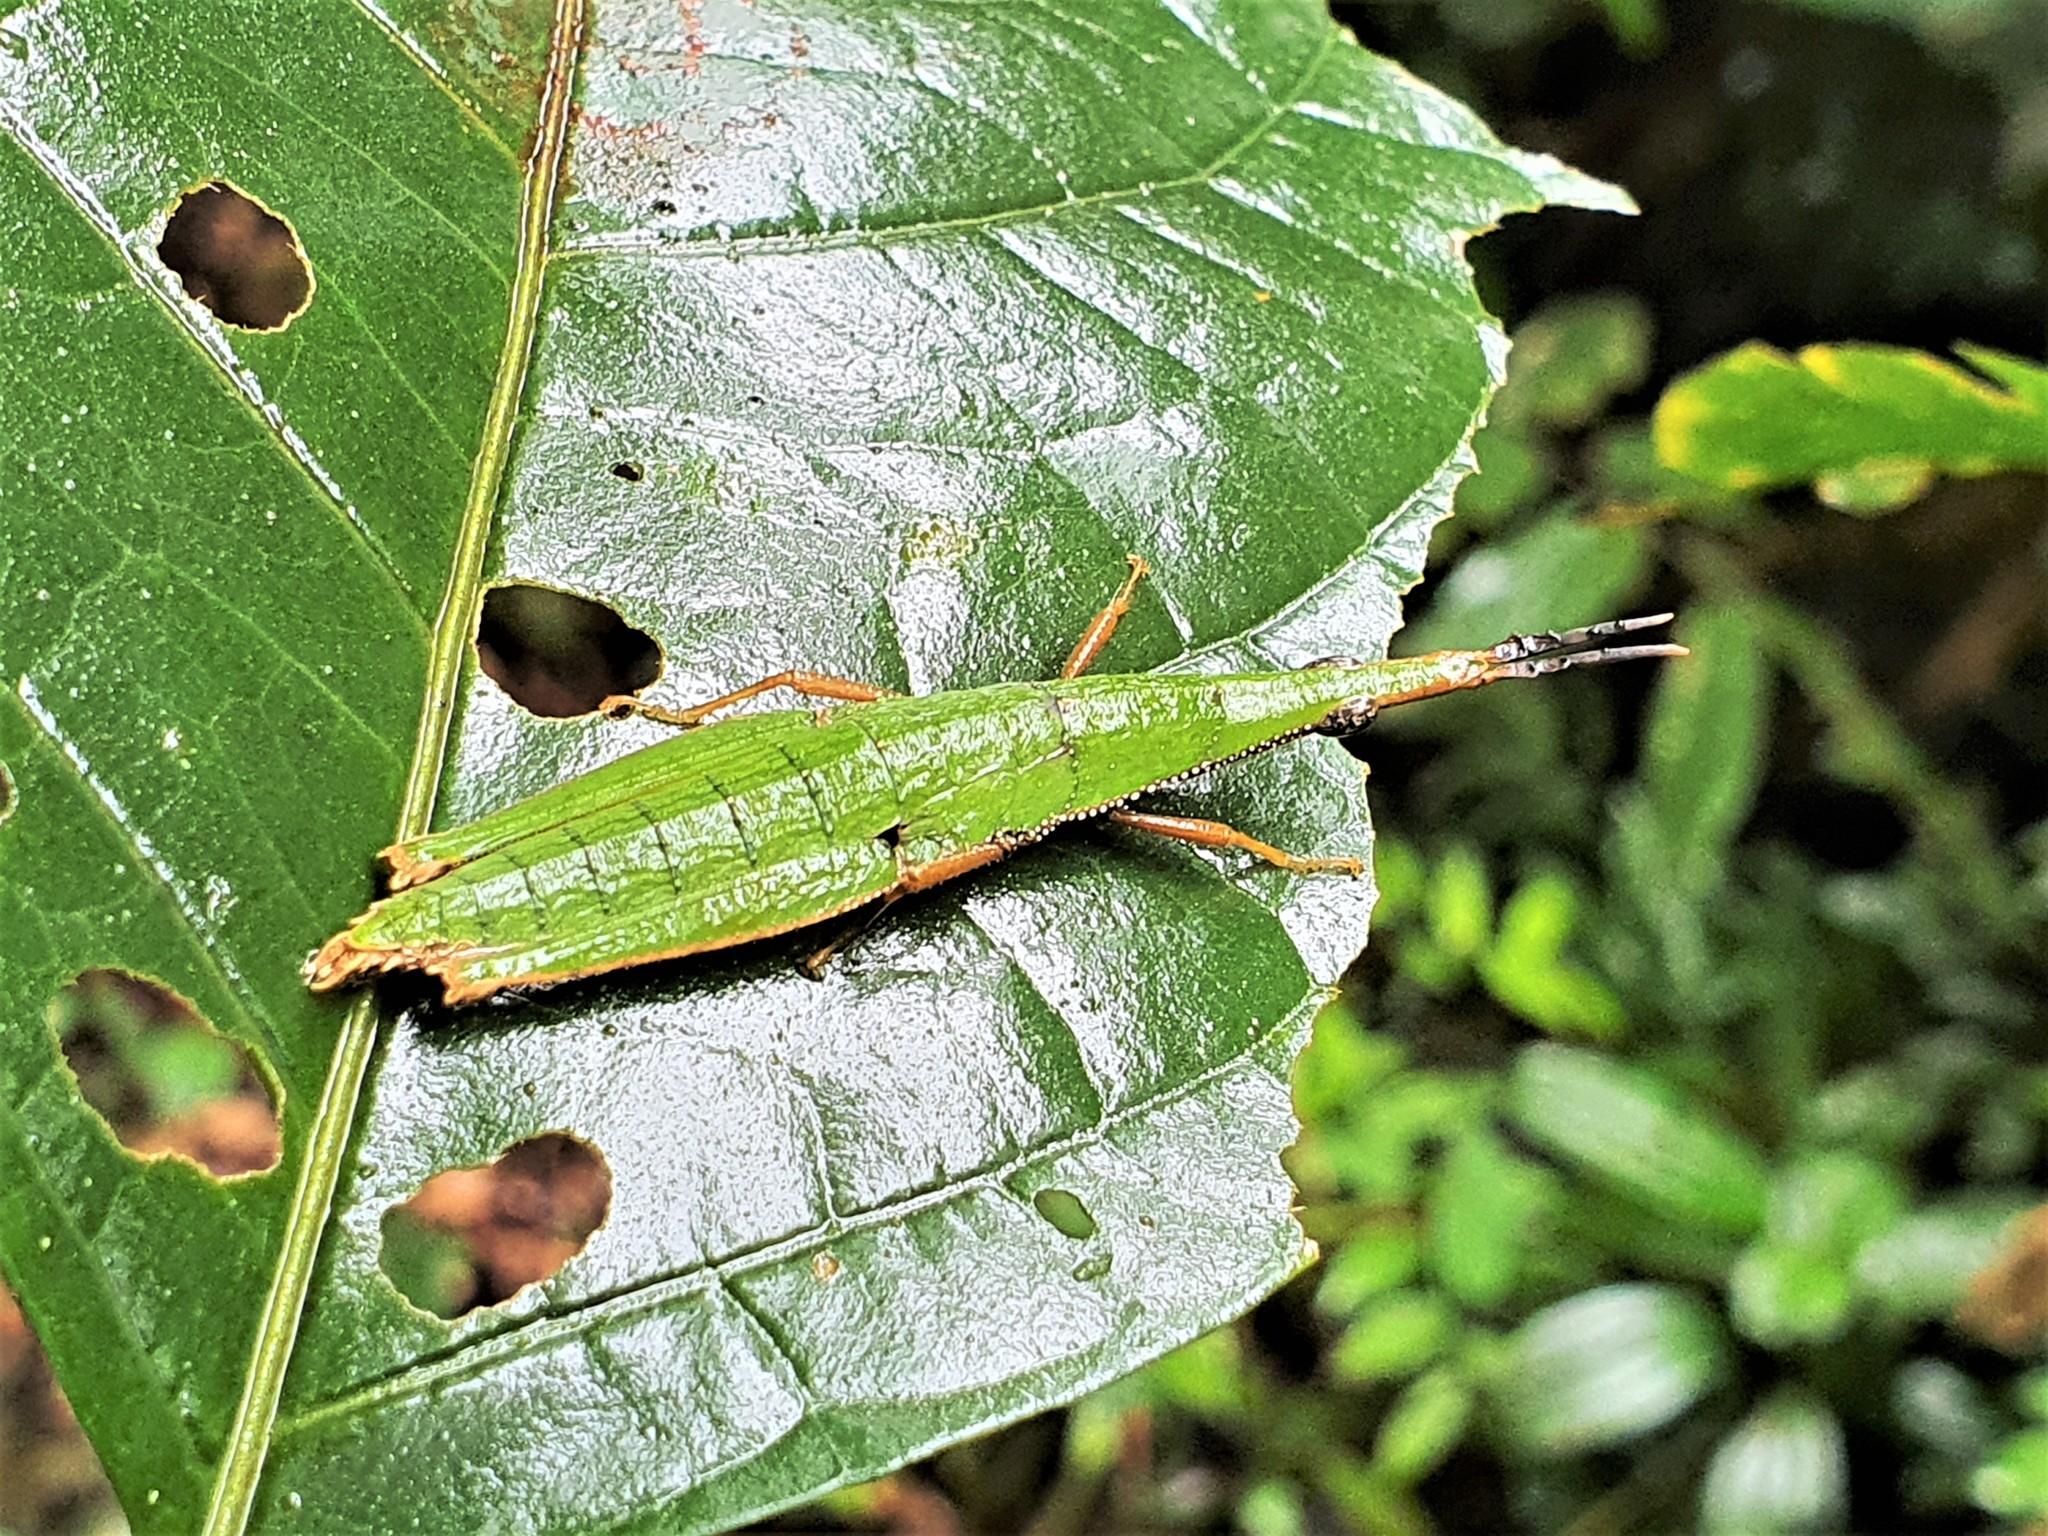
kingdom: Animalia
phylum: Arthropoda
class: Insecta
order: Orthoptera
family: Pyrgomorphidae
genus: Omura
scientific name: Omura congrua
